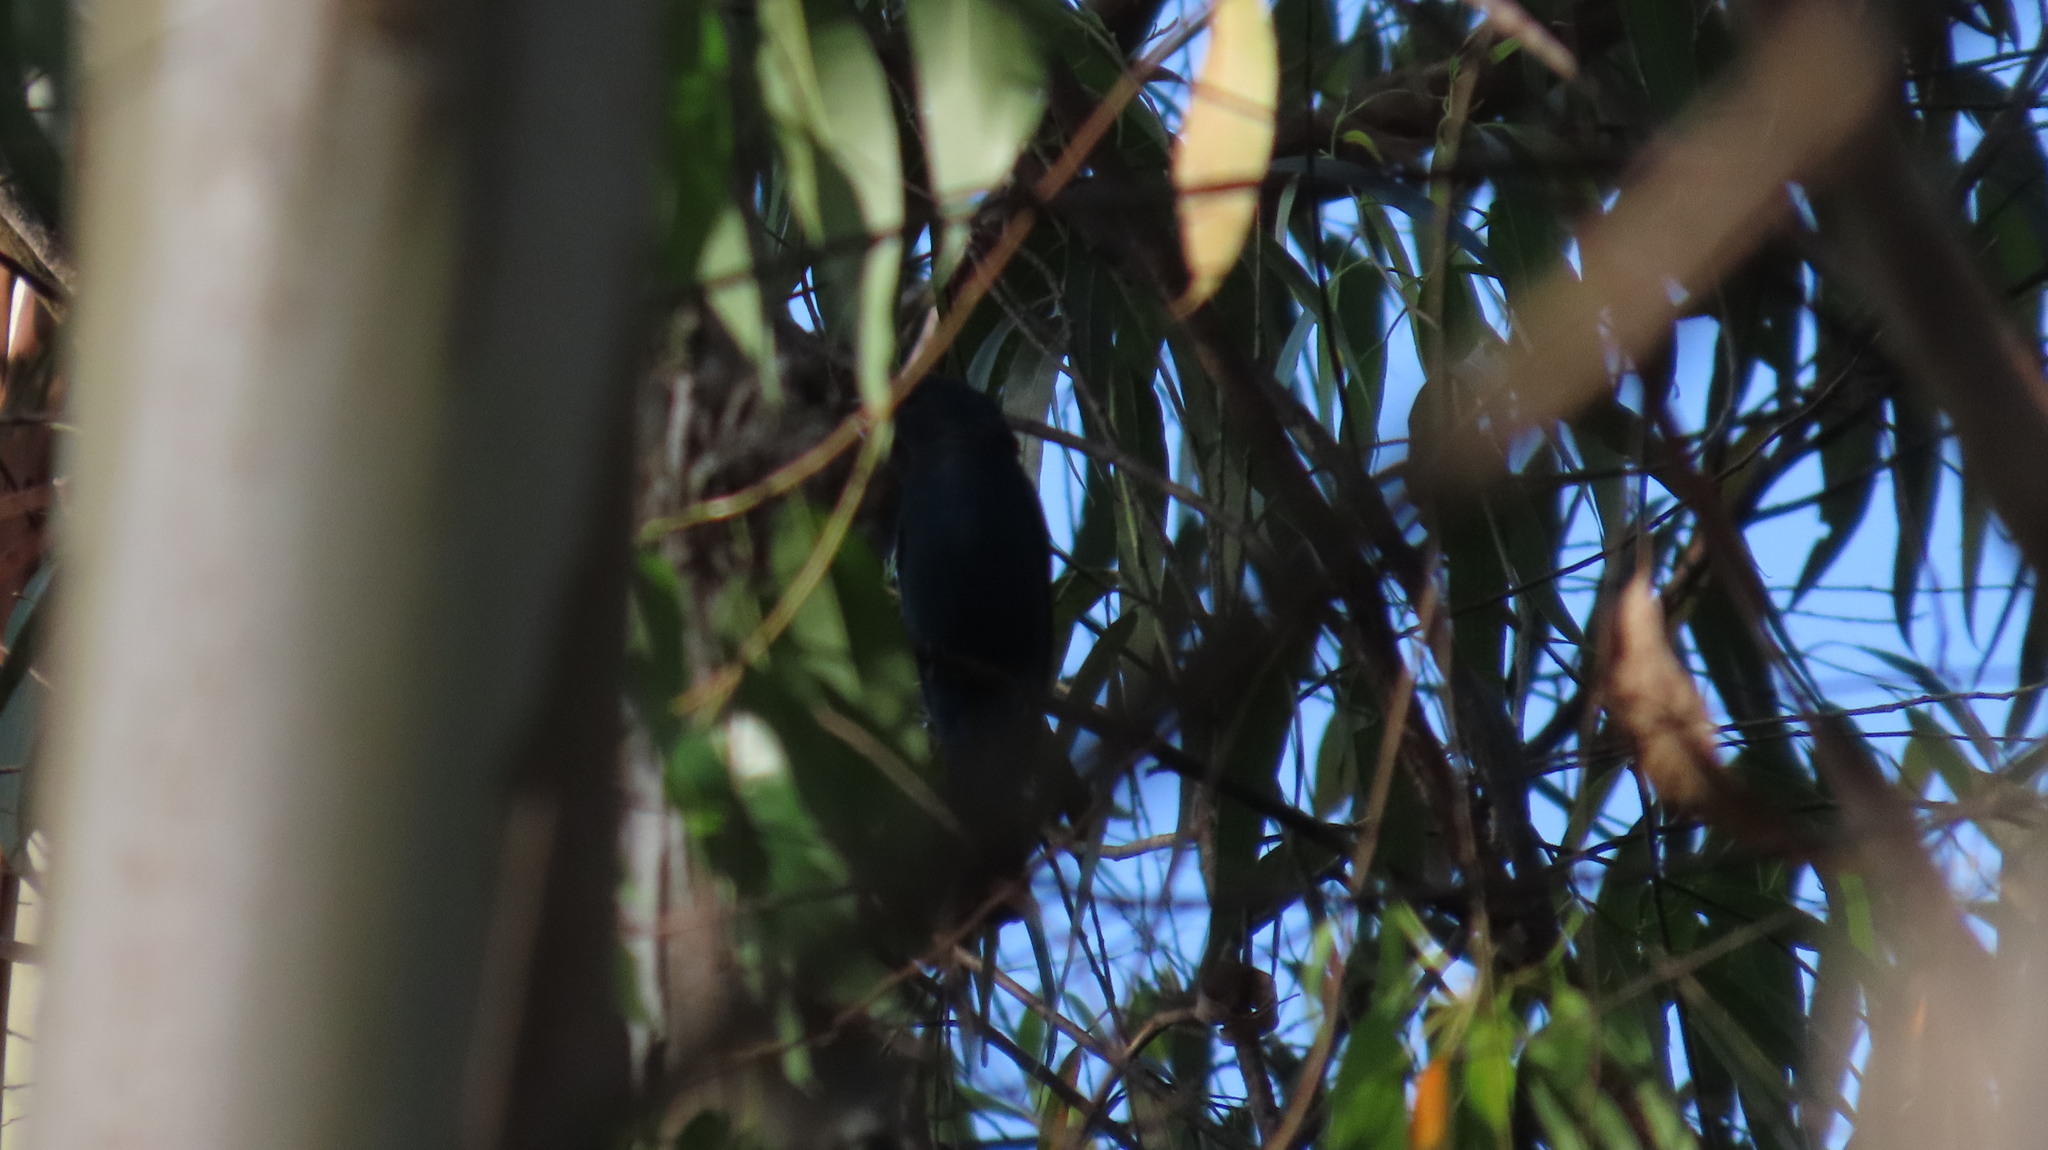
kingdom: Animalia
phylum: Chordata
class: Aves
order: Passeriformes
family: Irenidae
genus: Irena
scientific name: Irena puella
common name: Asian fairy-bluebird
